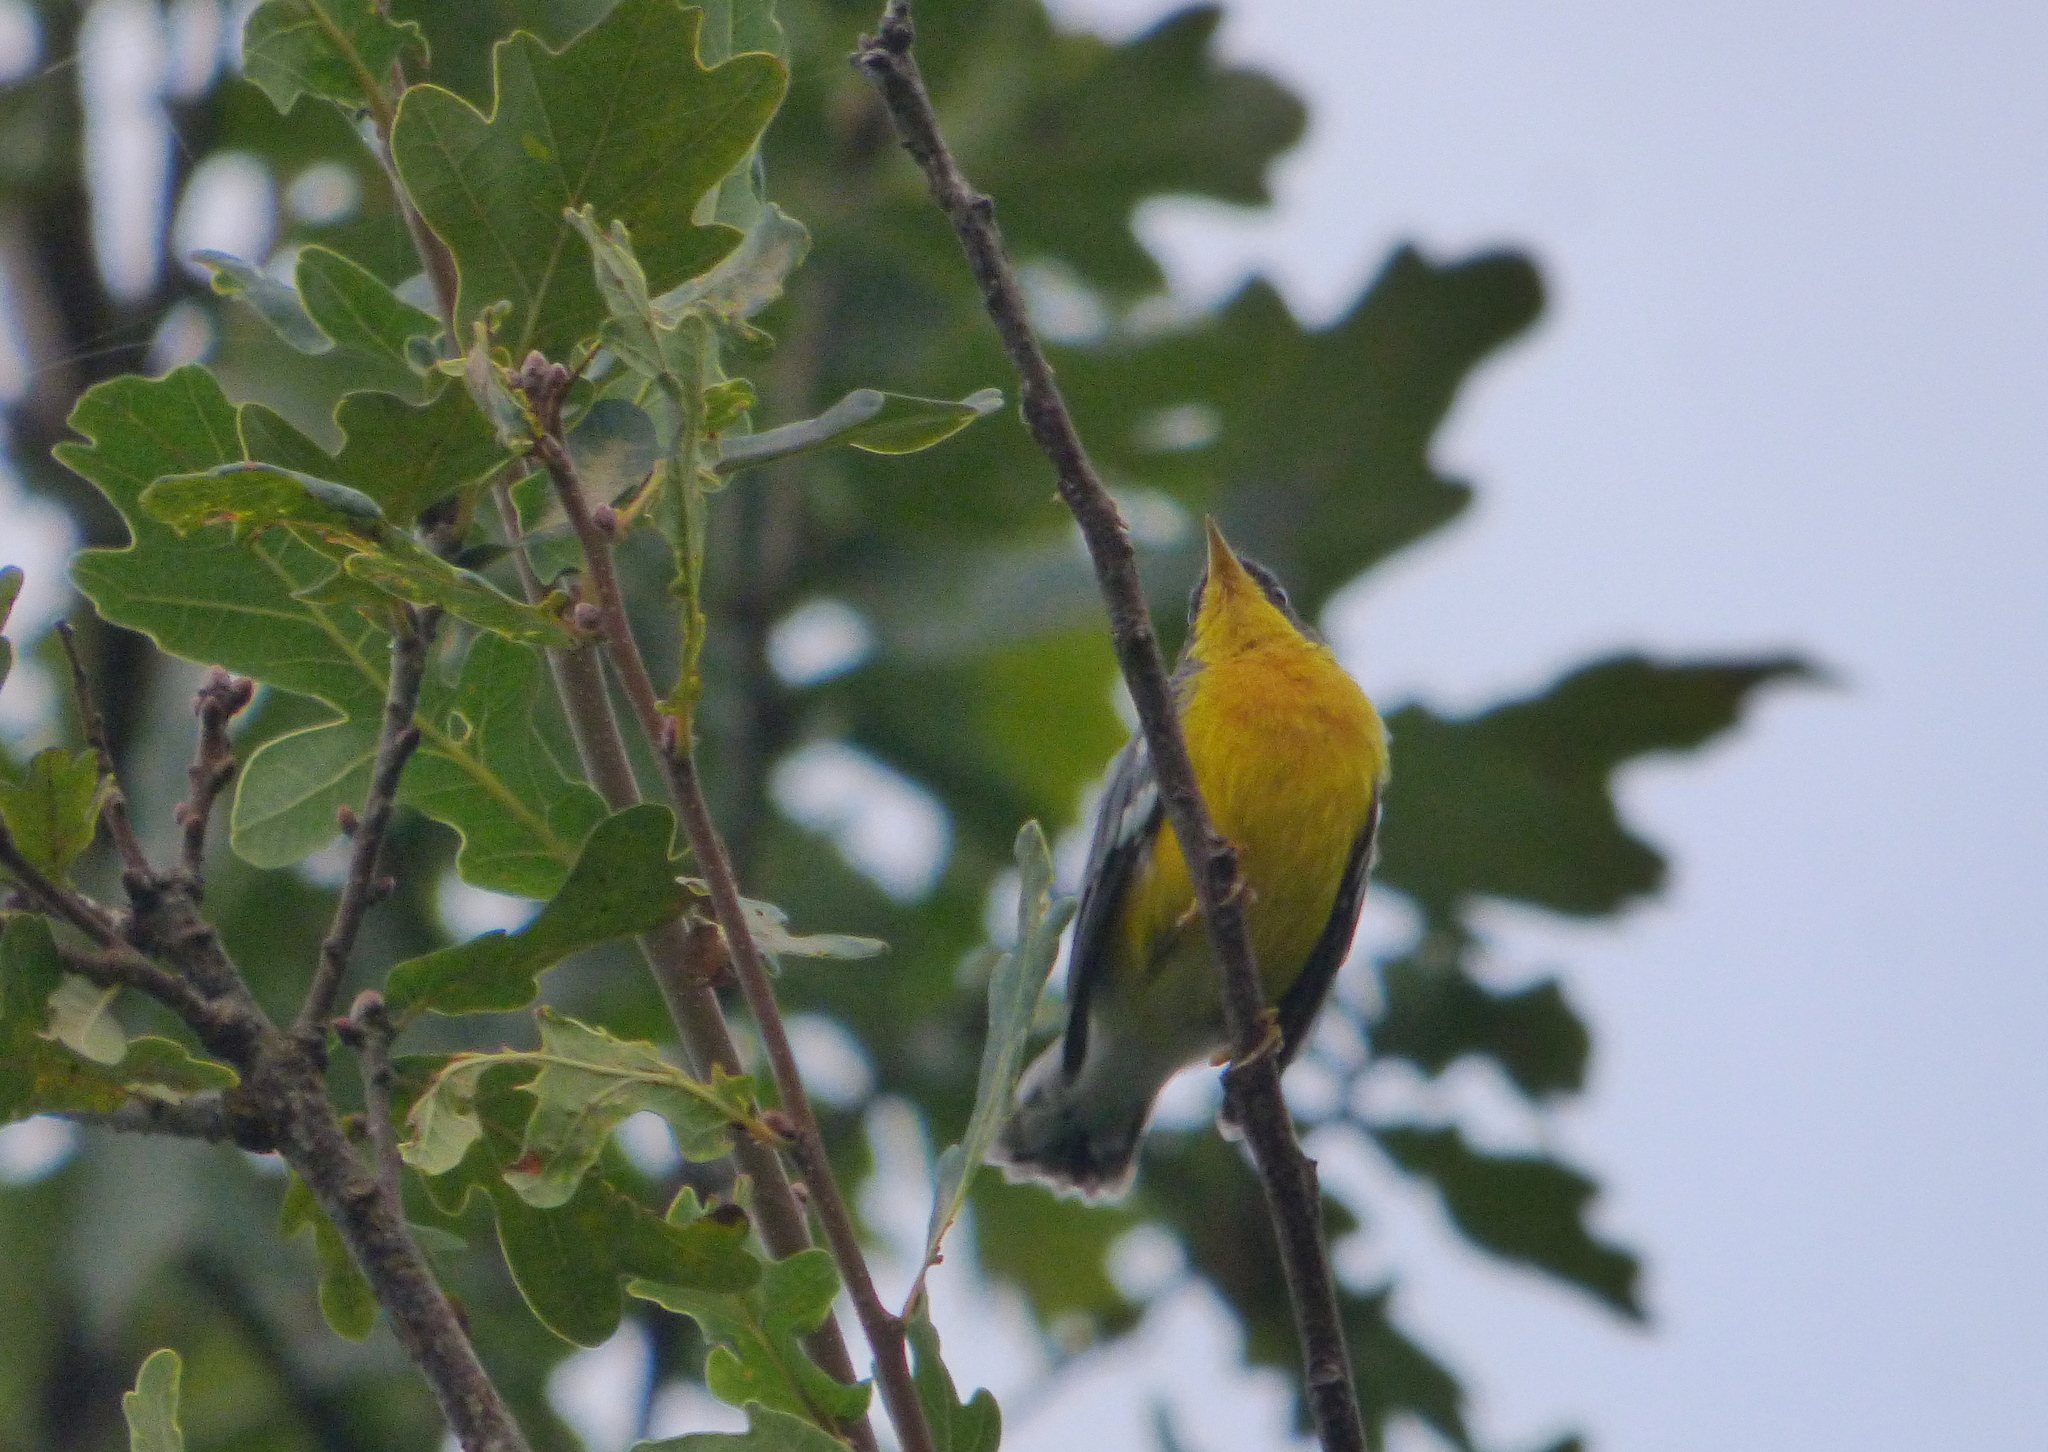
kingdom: Animalia
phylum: Chordata
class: Aves
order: Passeriformes
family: Parulidae
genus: Setophaga
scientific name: Setophaga pitiayumi
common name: Tropical parula
